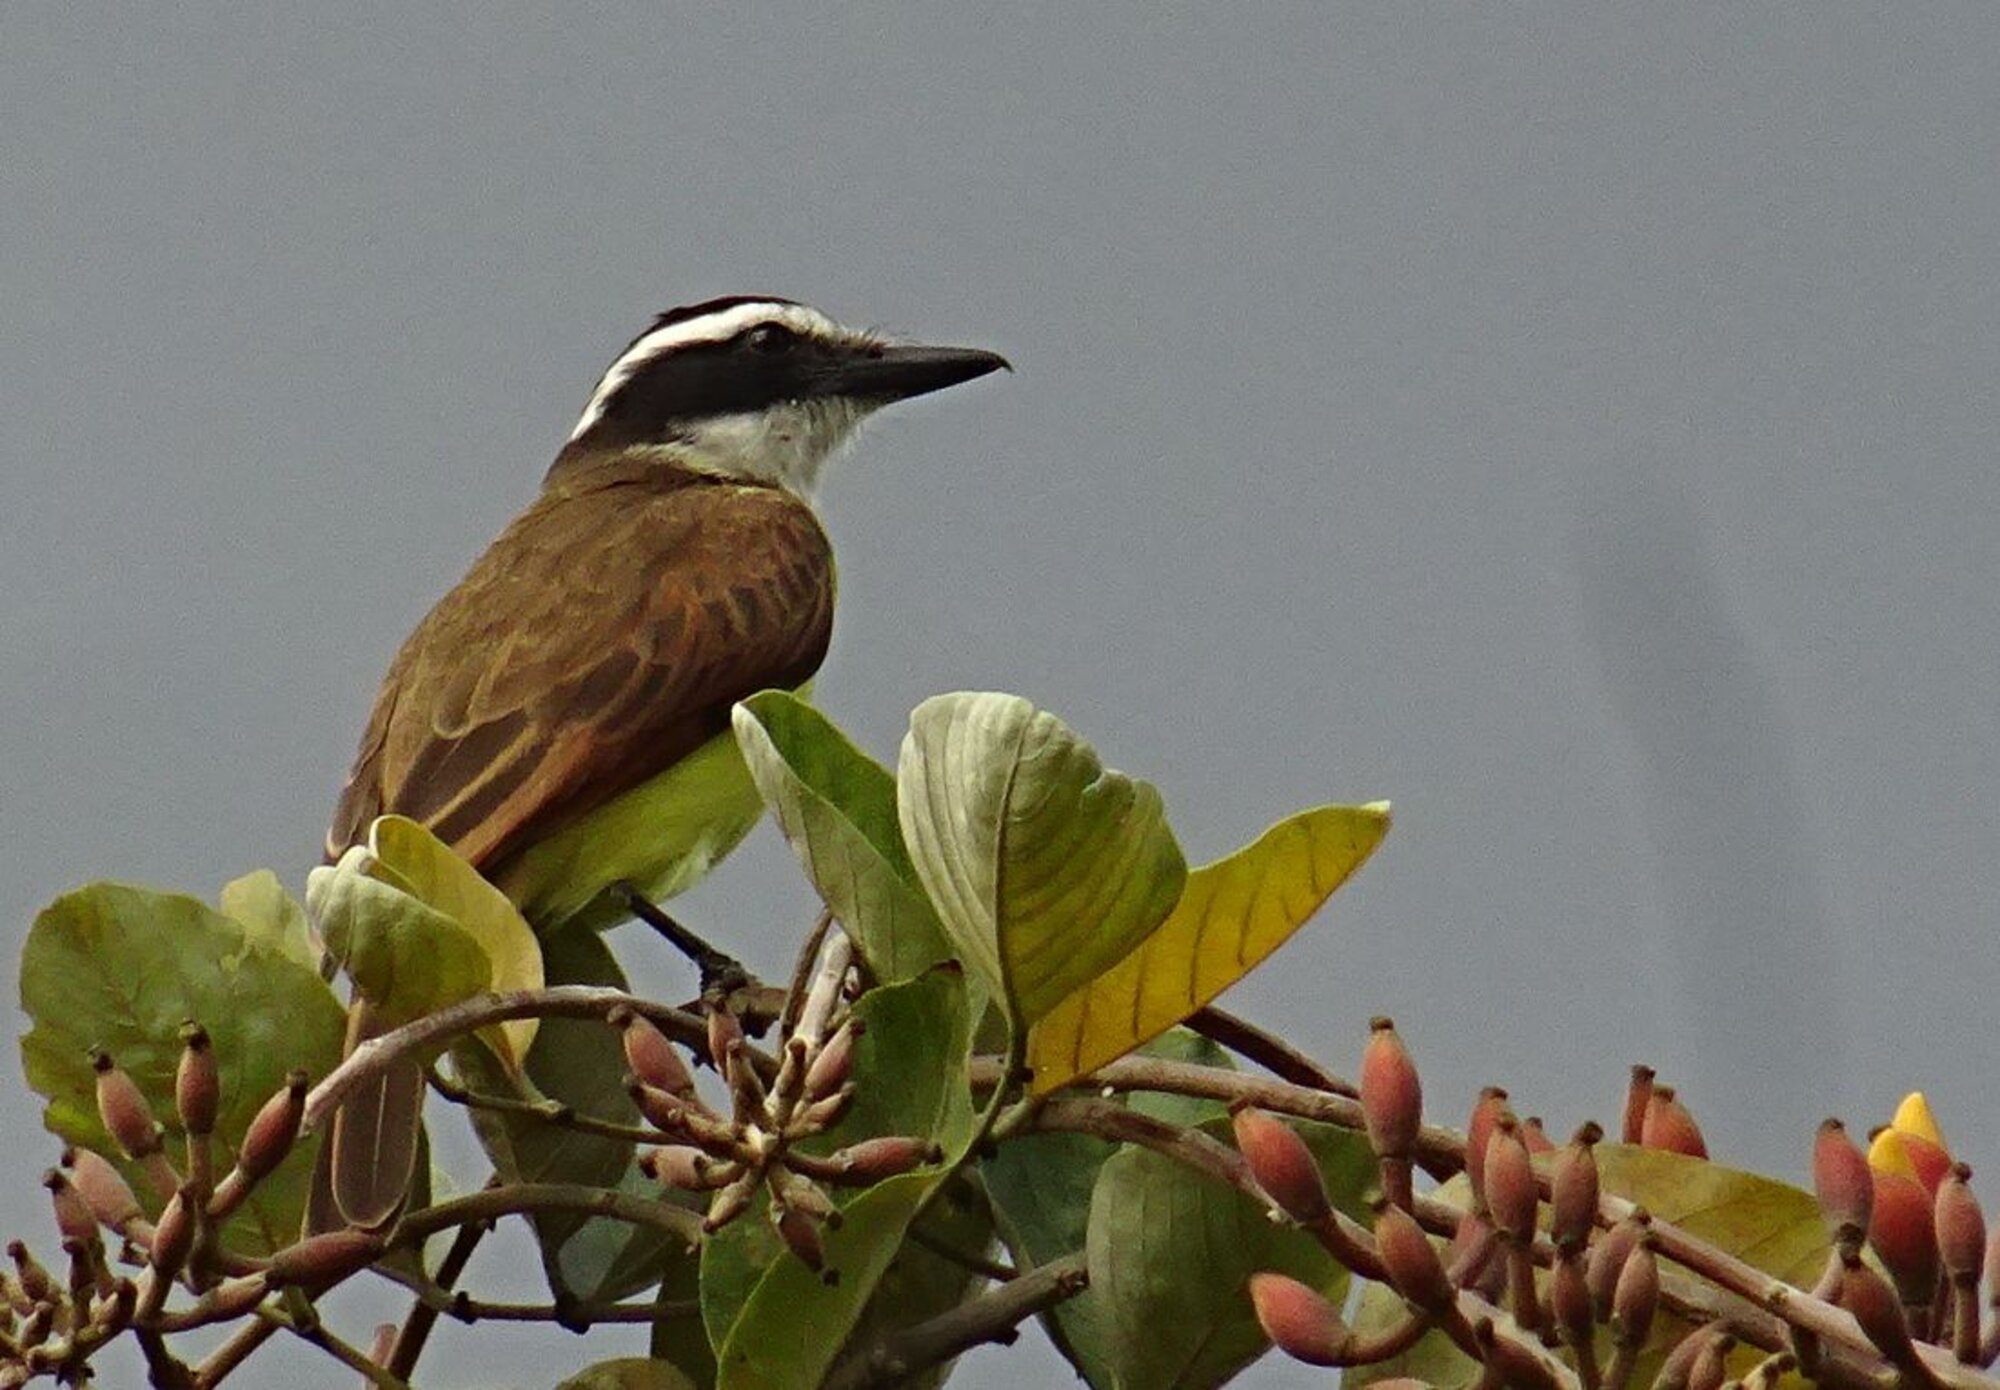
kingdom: Animalia
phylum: Chordata
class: Aves
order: Passeriformes
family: Tyrannidae
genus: Pitangus
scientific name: Pitangus sulphuratus
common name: Great kiskadee
